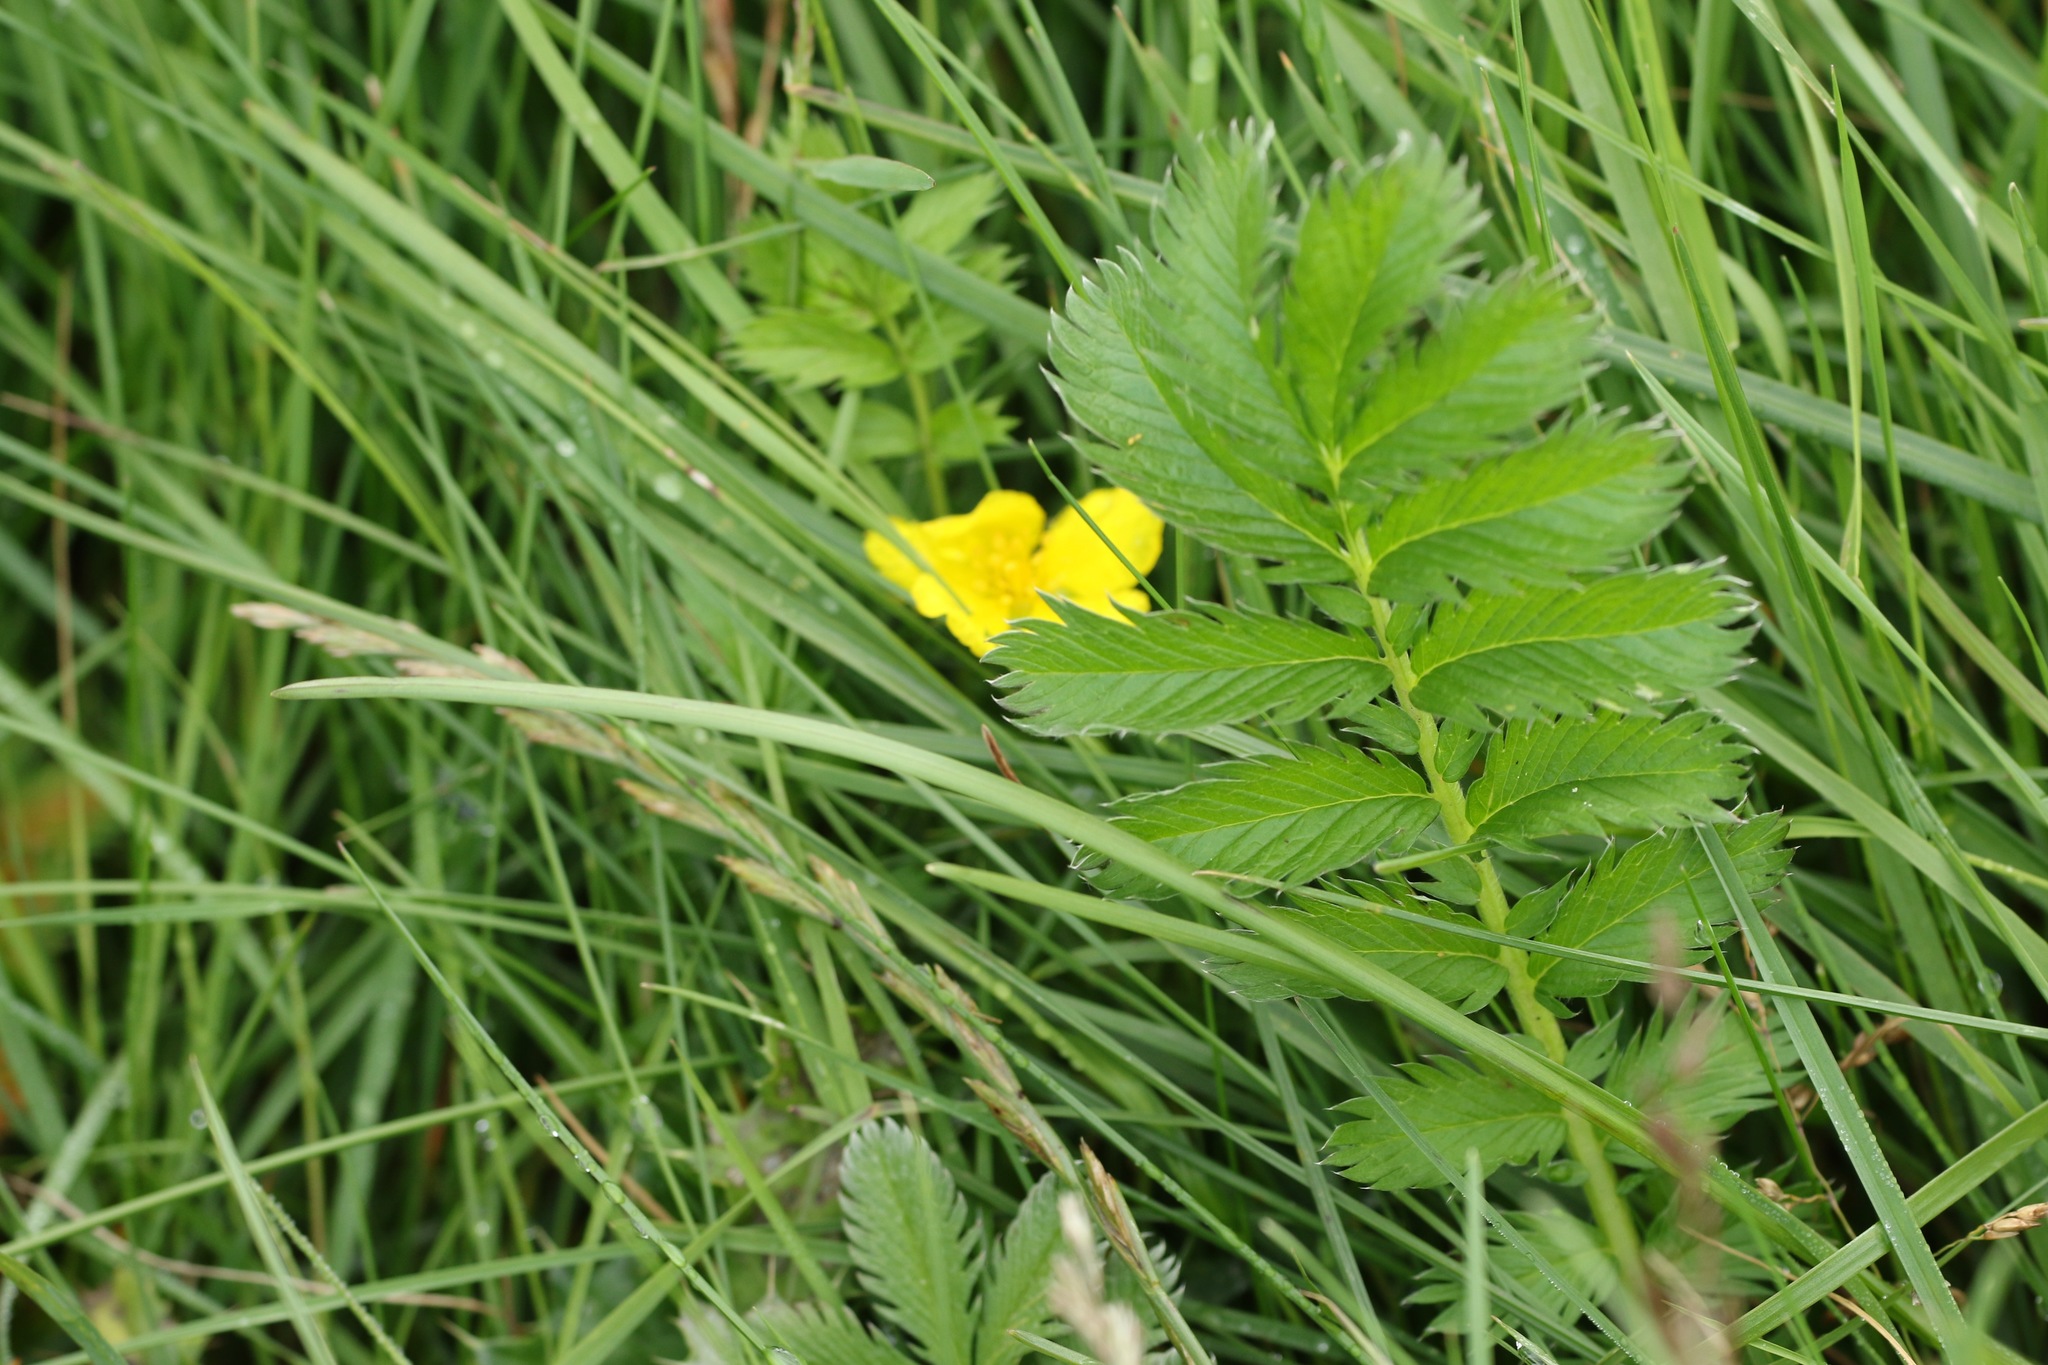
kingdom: Plantae
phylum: Tracheophyta
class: Magnoliopsida
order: Rosales
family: Rosaceae
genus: Argentina
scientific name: Argentina anserina
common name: Common silverweed
